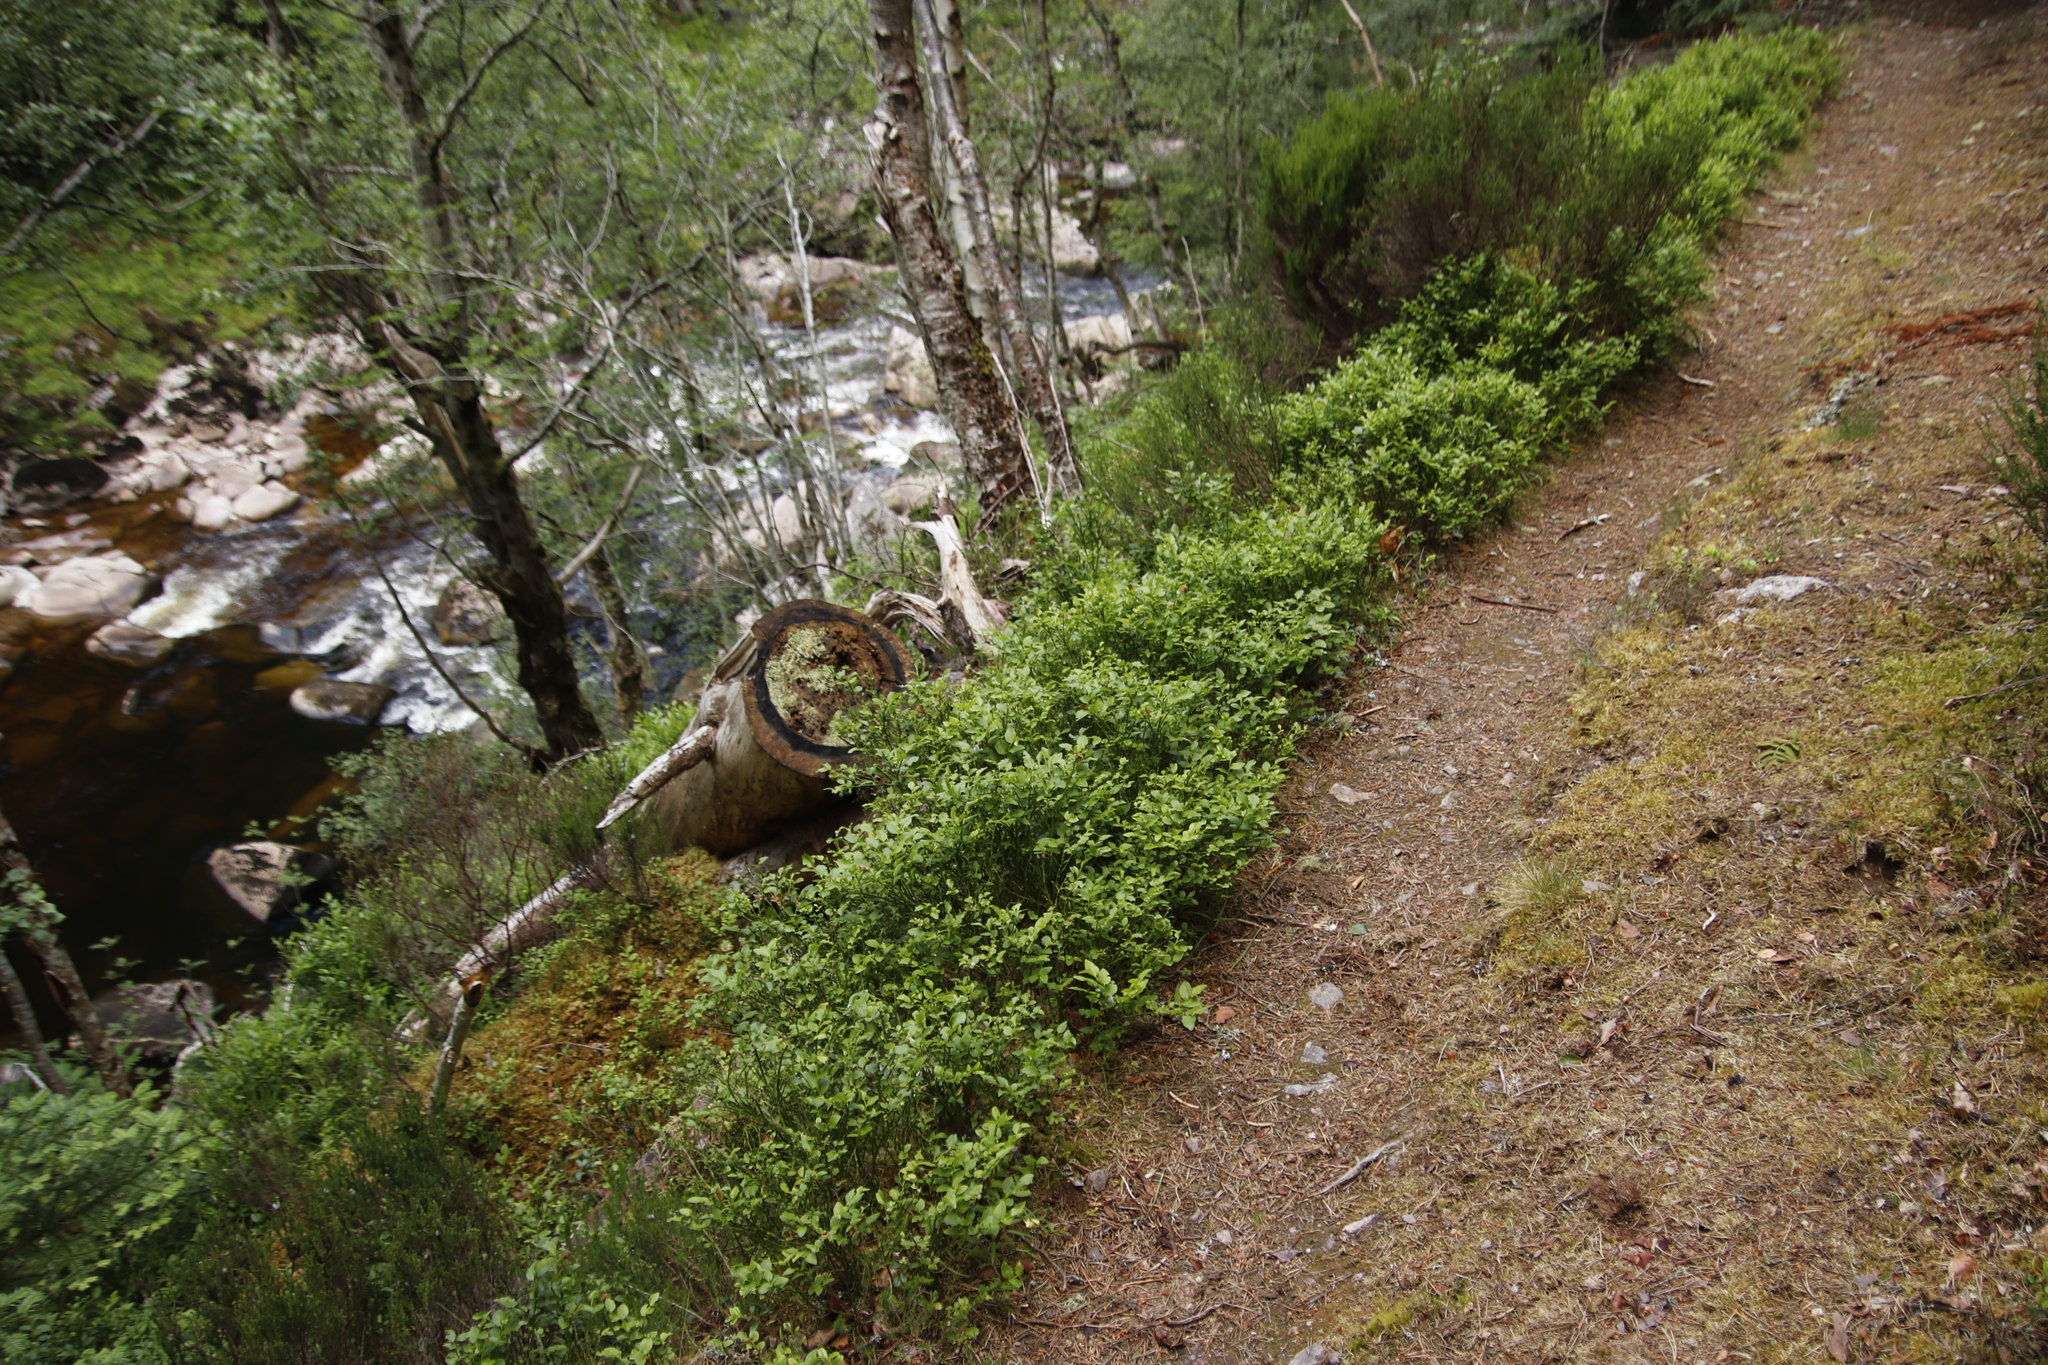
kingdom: Plantae
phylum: Tracheophyta
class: Magnoliopsida
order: Ericales
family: Ericaceae
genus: Vaccinium
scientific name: Vaccinium myrtillus
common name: Bilberry
